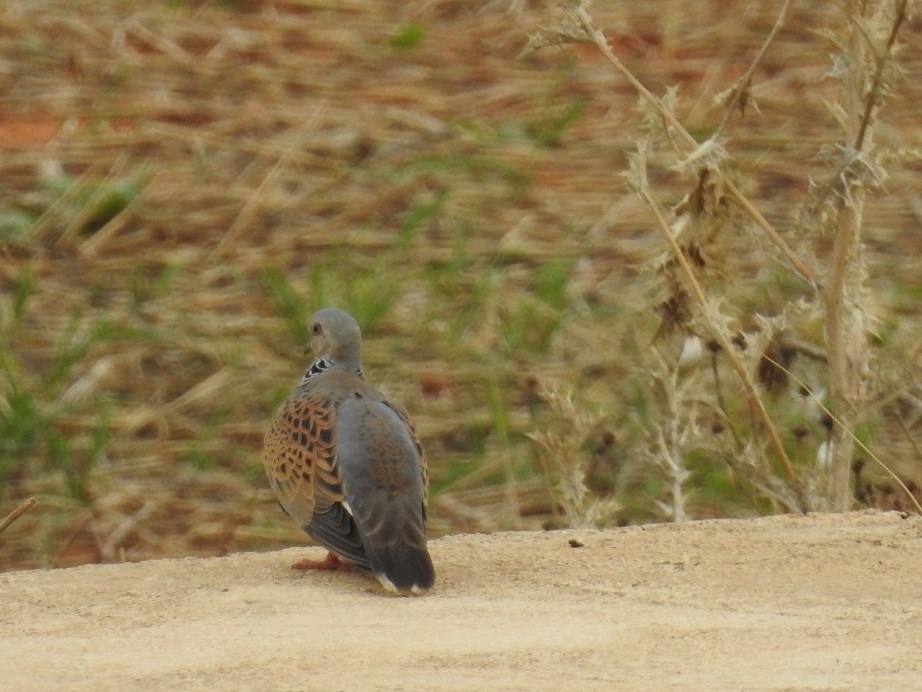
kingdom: Animalia
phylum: Chordata
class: Aves
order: Columbiformes
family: Columbidae
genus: Streptopelia
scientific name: Streptopelia turtur
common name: European turtle dove
